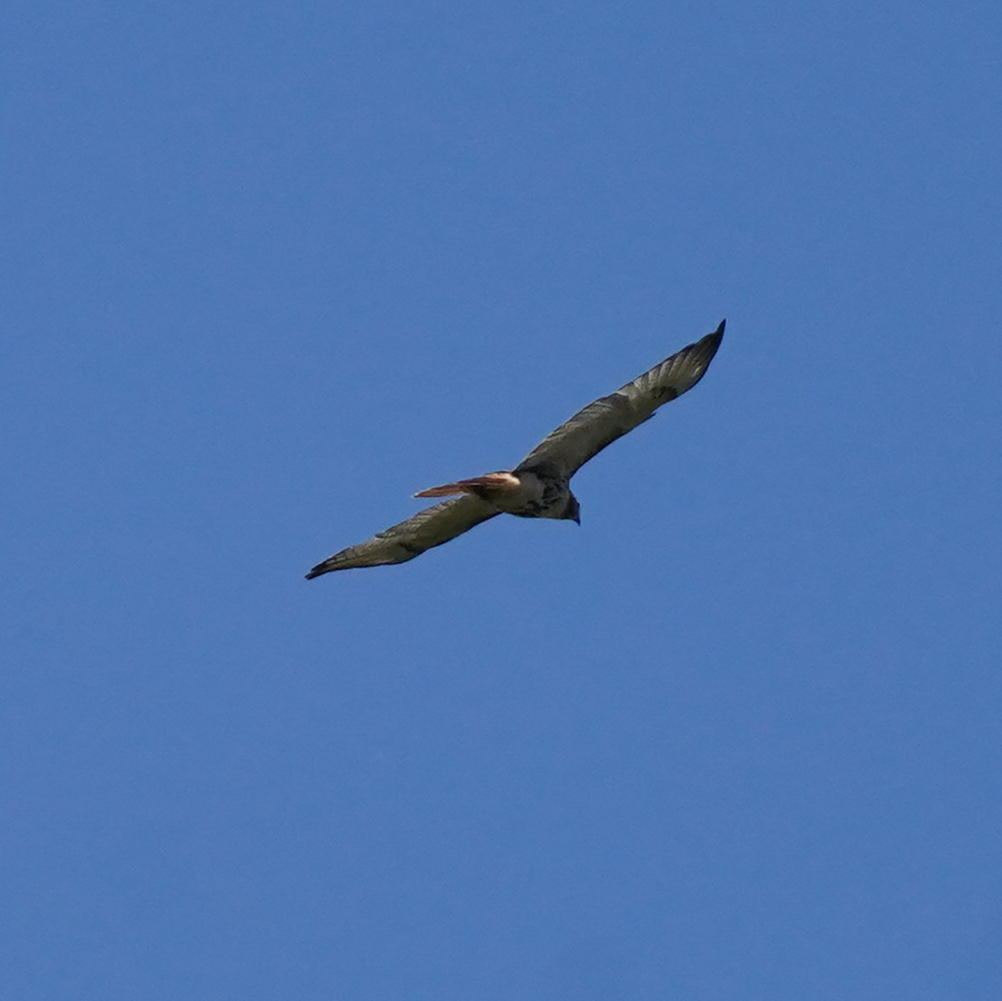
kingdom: Animalia
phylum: Chordata
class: Aves
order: Accipitriformes
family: Accipitridae
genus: Buteo
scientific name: Buteo jamaicensis
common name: Red-tailed hawk
